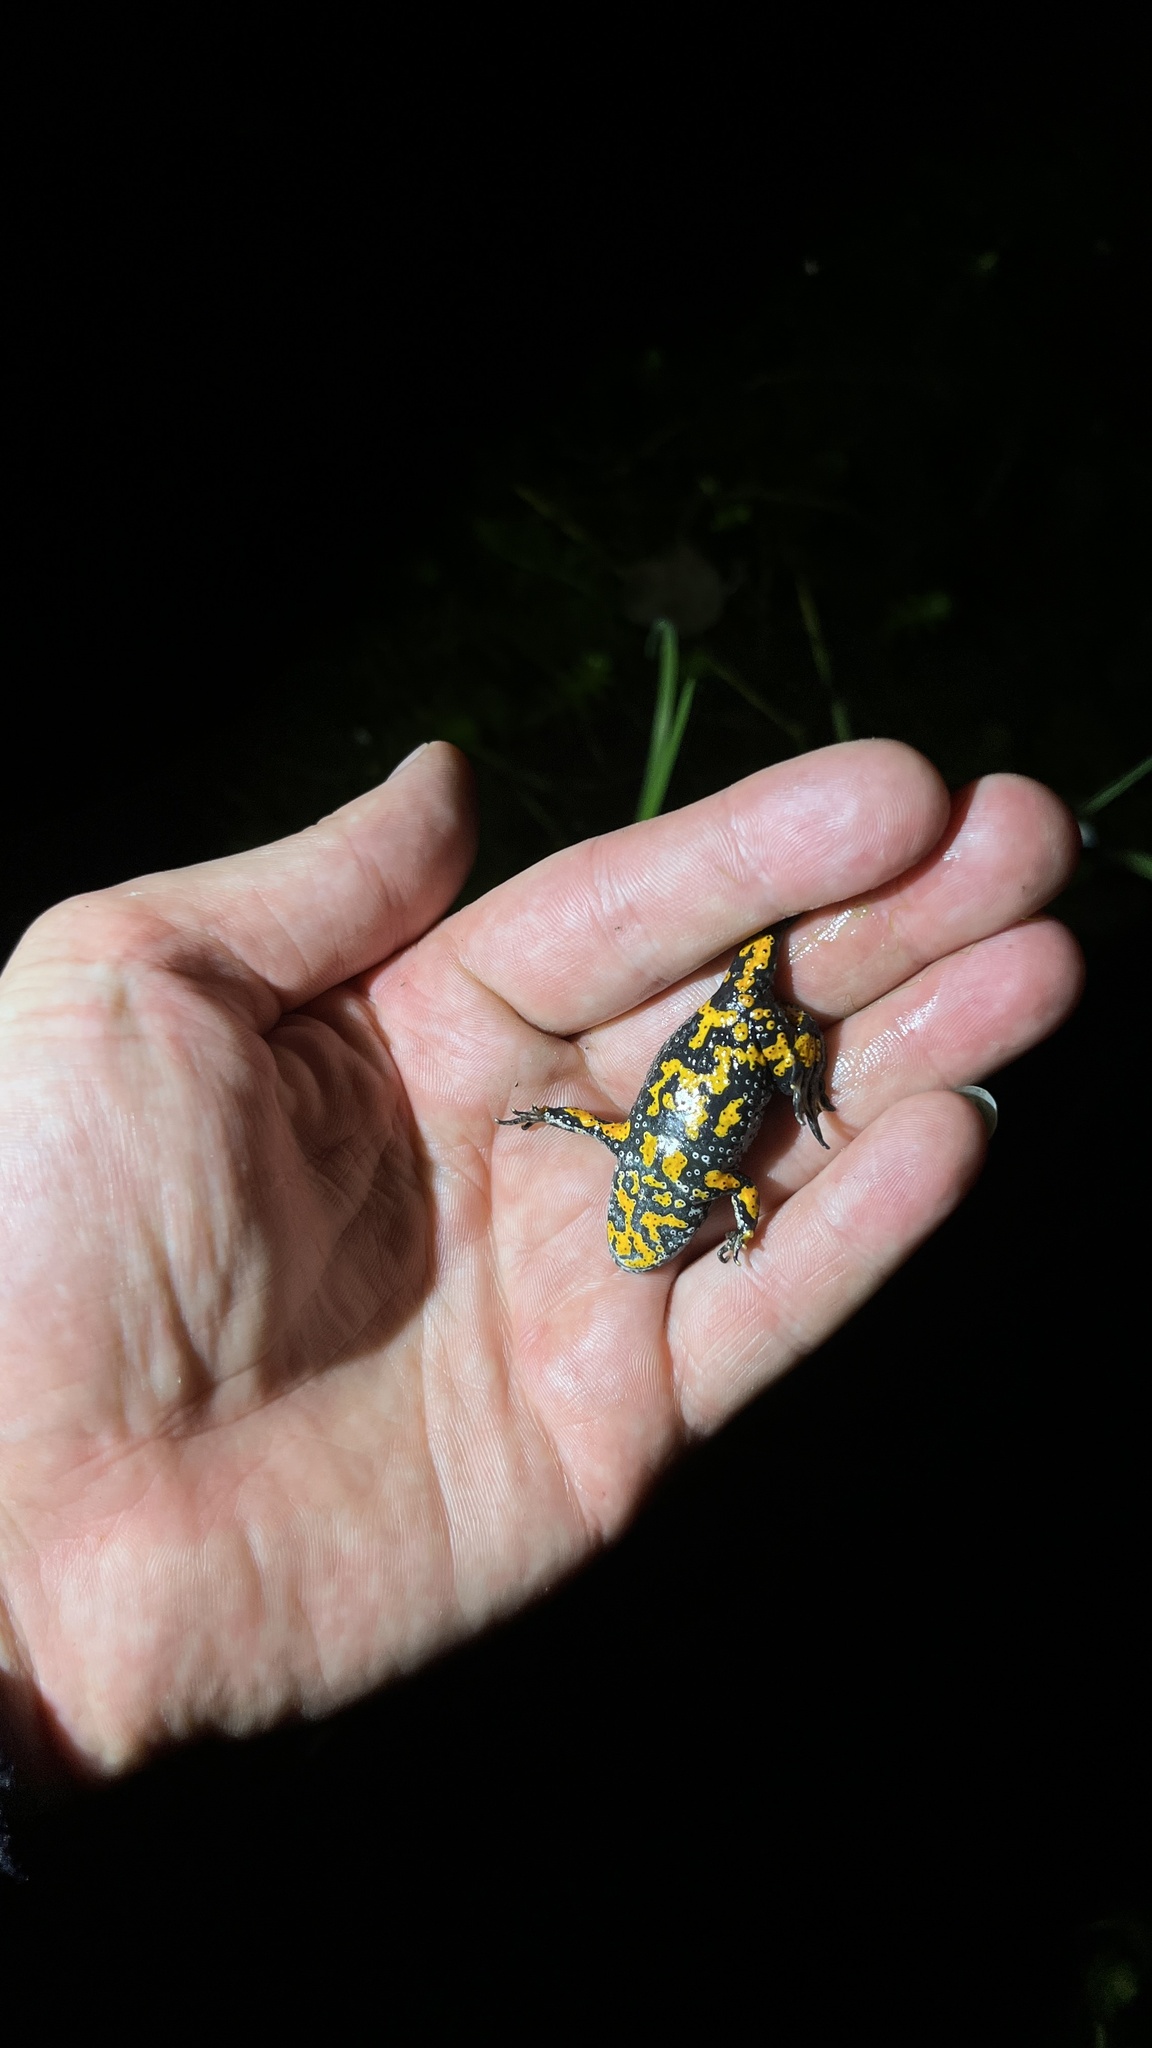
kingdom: Animalia
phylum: Chordata
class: Amphibia
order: Anura
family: Bombinatoridae
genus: Bombina
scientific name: Bombina bombina
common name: Fire-bellied toad
